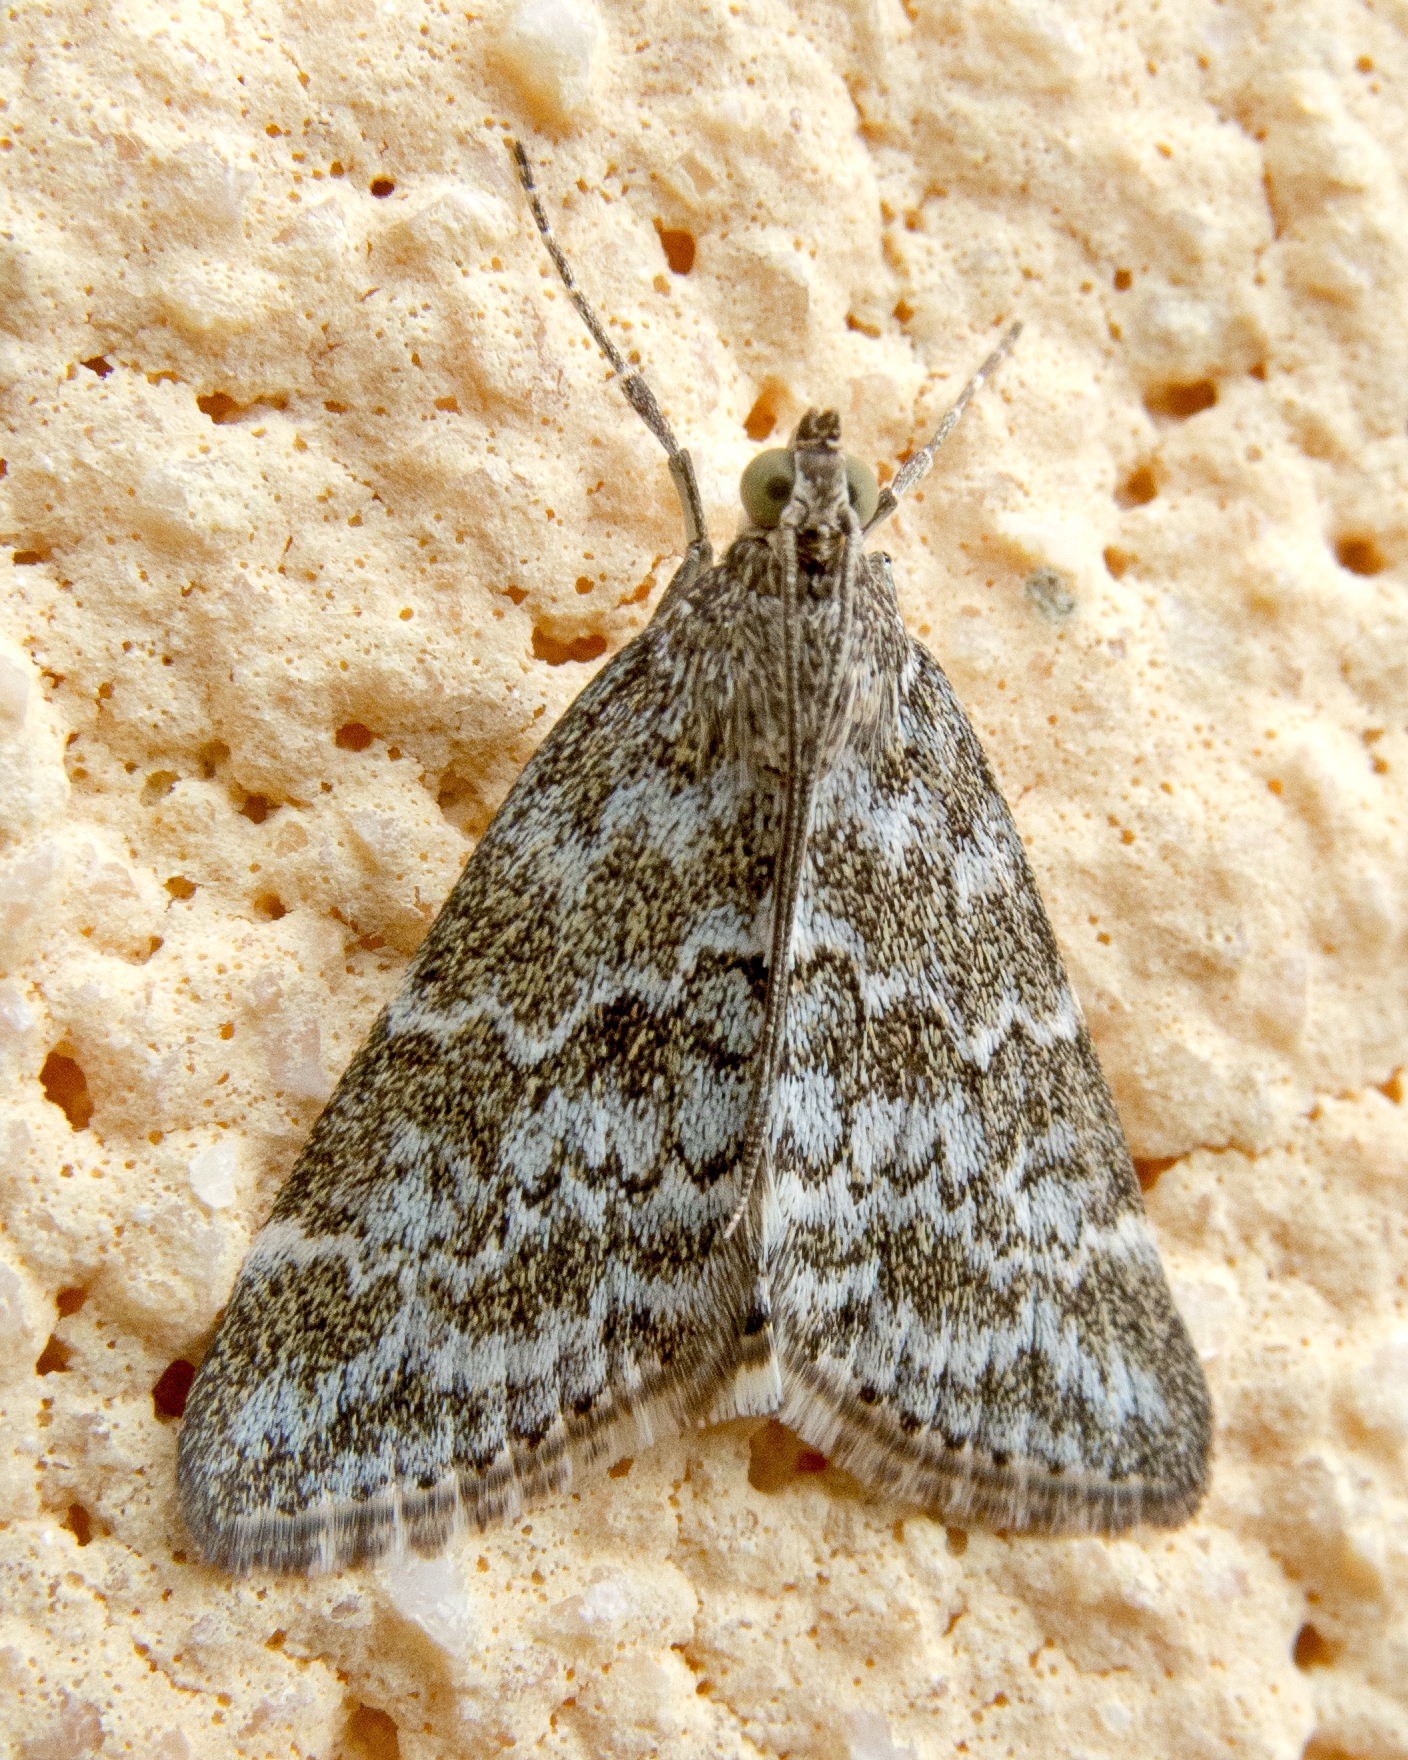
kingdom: Animalia
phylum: Arthropoda
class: Insecta
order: Lepidoptera
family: Crambidae
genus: Evergestis
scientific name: Evergestis sophialis
